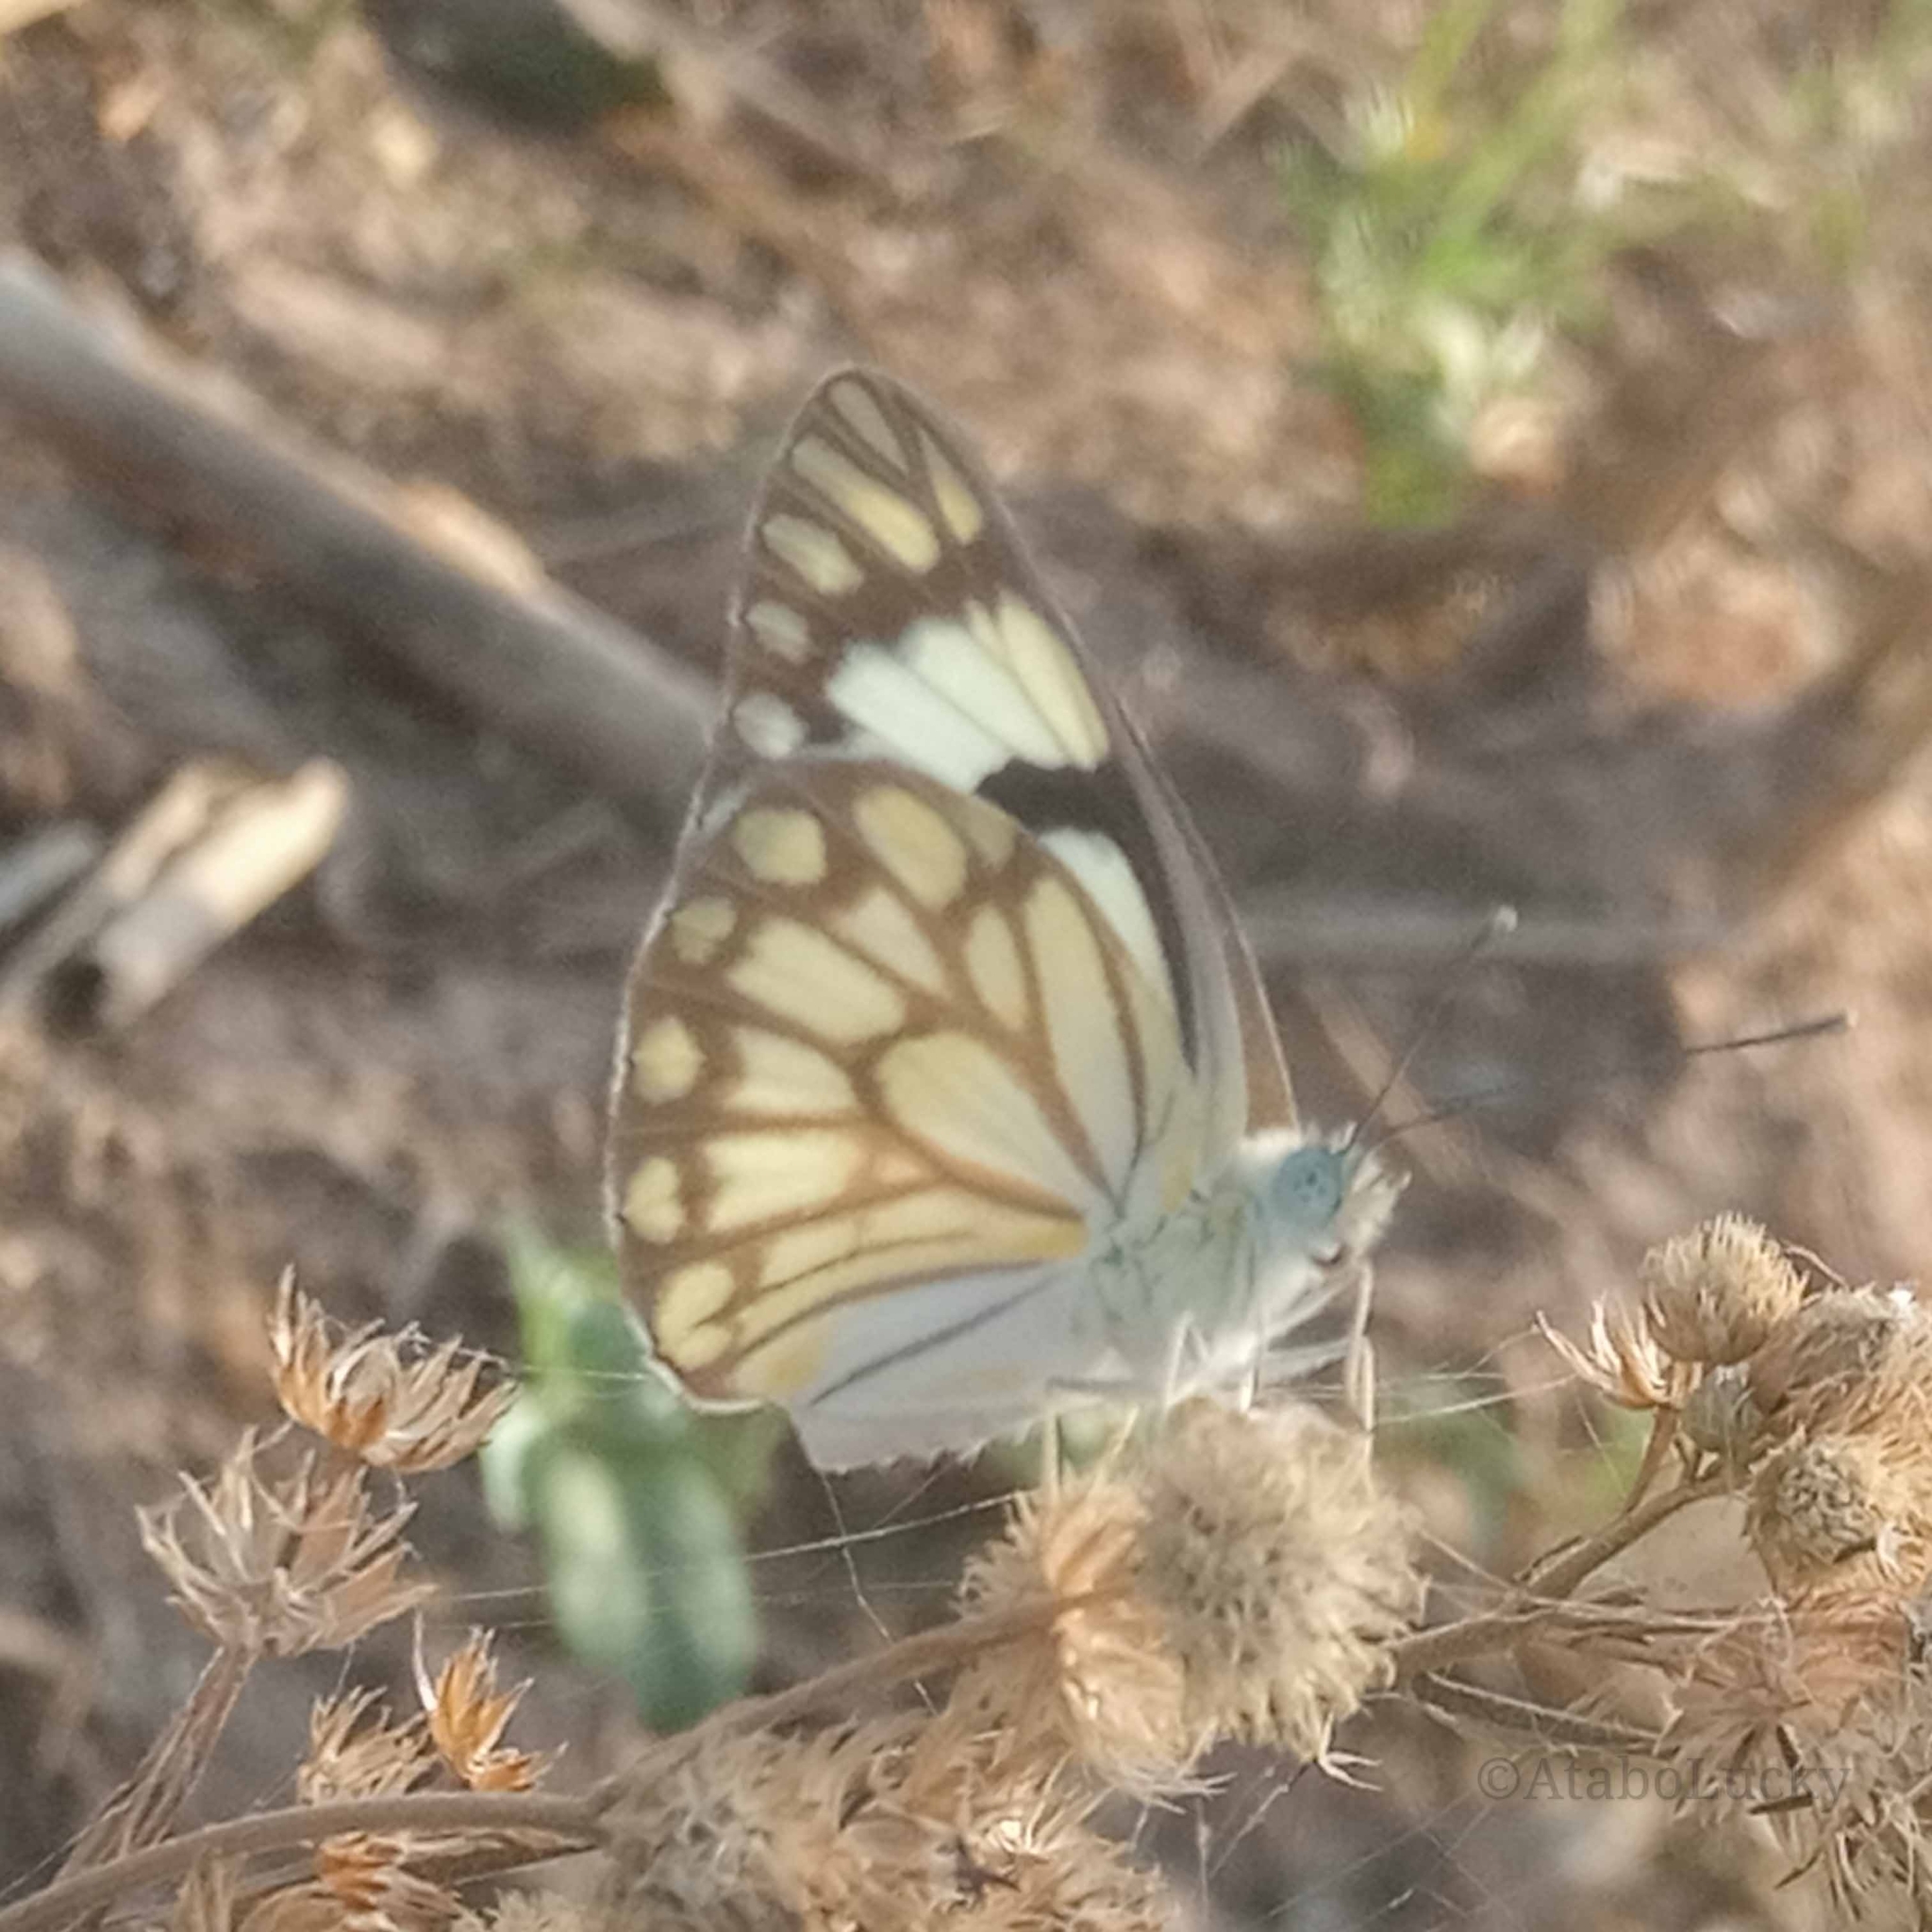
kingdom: Animalia
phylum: Arthropoda
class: Insecta
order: Lepidoptera
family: Pieridae
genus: Belenois
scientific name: Belenois aurota
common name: Brown-veined white
